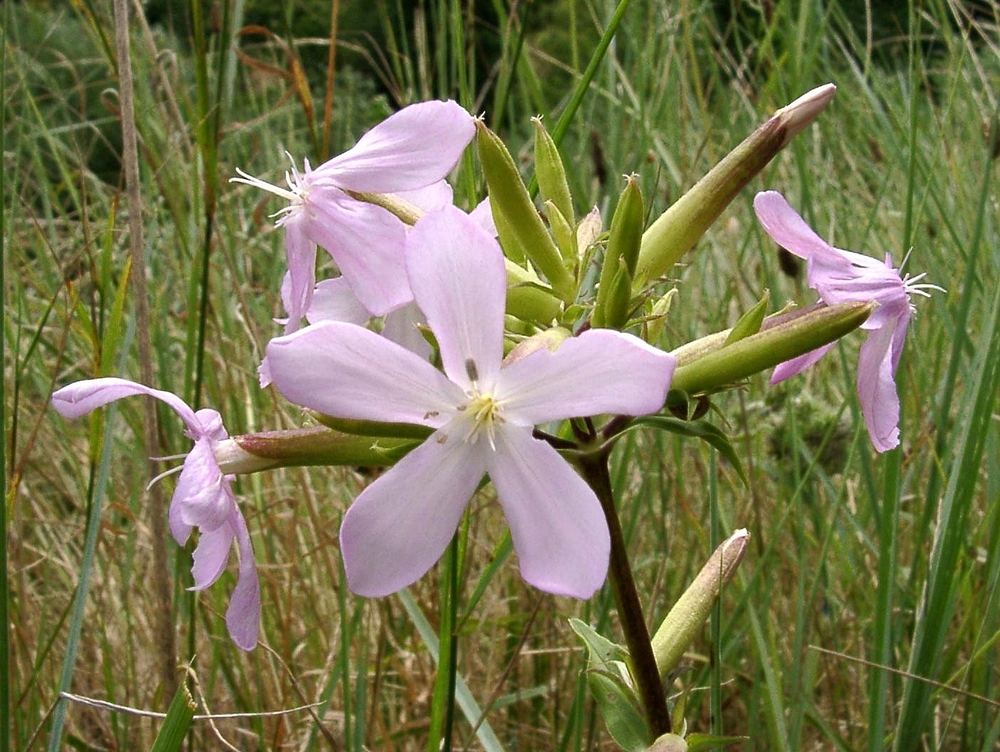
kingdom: Plantae
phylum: Tracheophyta
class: Magnoliopsida
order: Caryophyllales
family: Caryophyllaceae
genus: Saponaria
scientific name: Saponaria officinalis
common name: Soapwort
